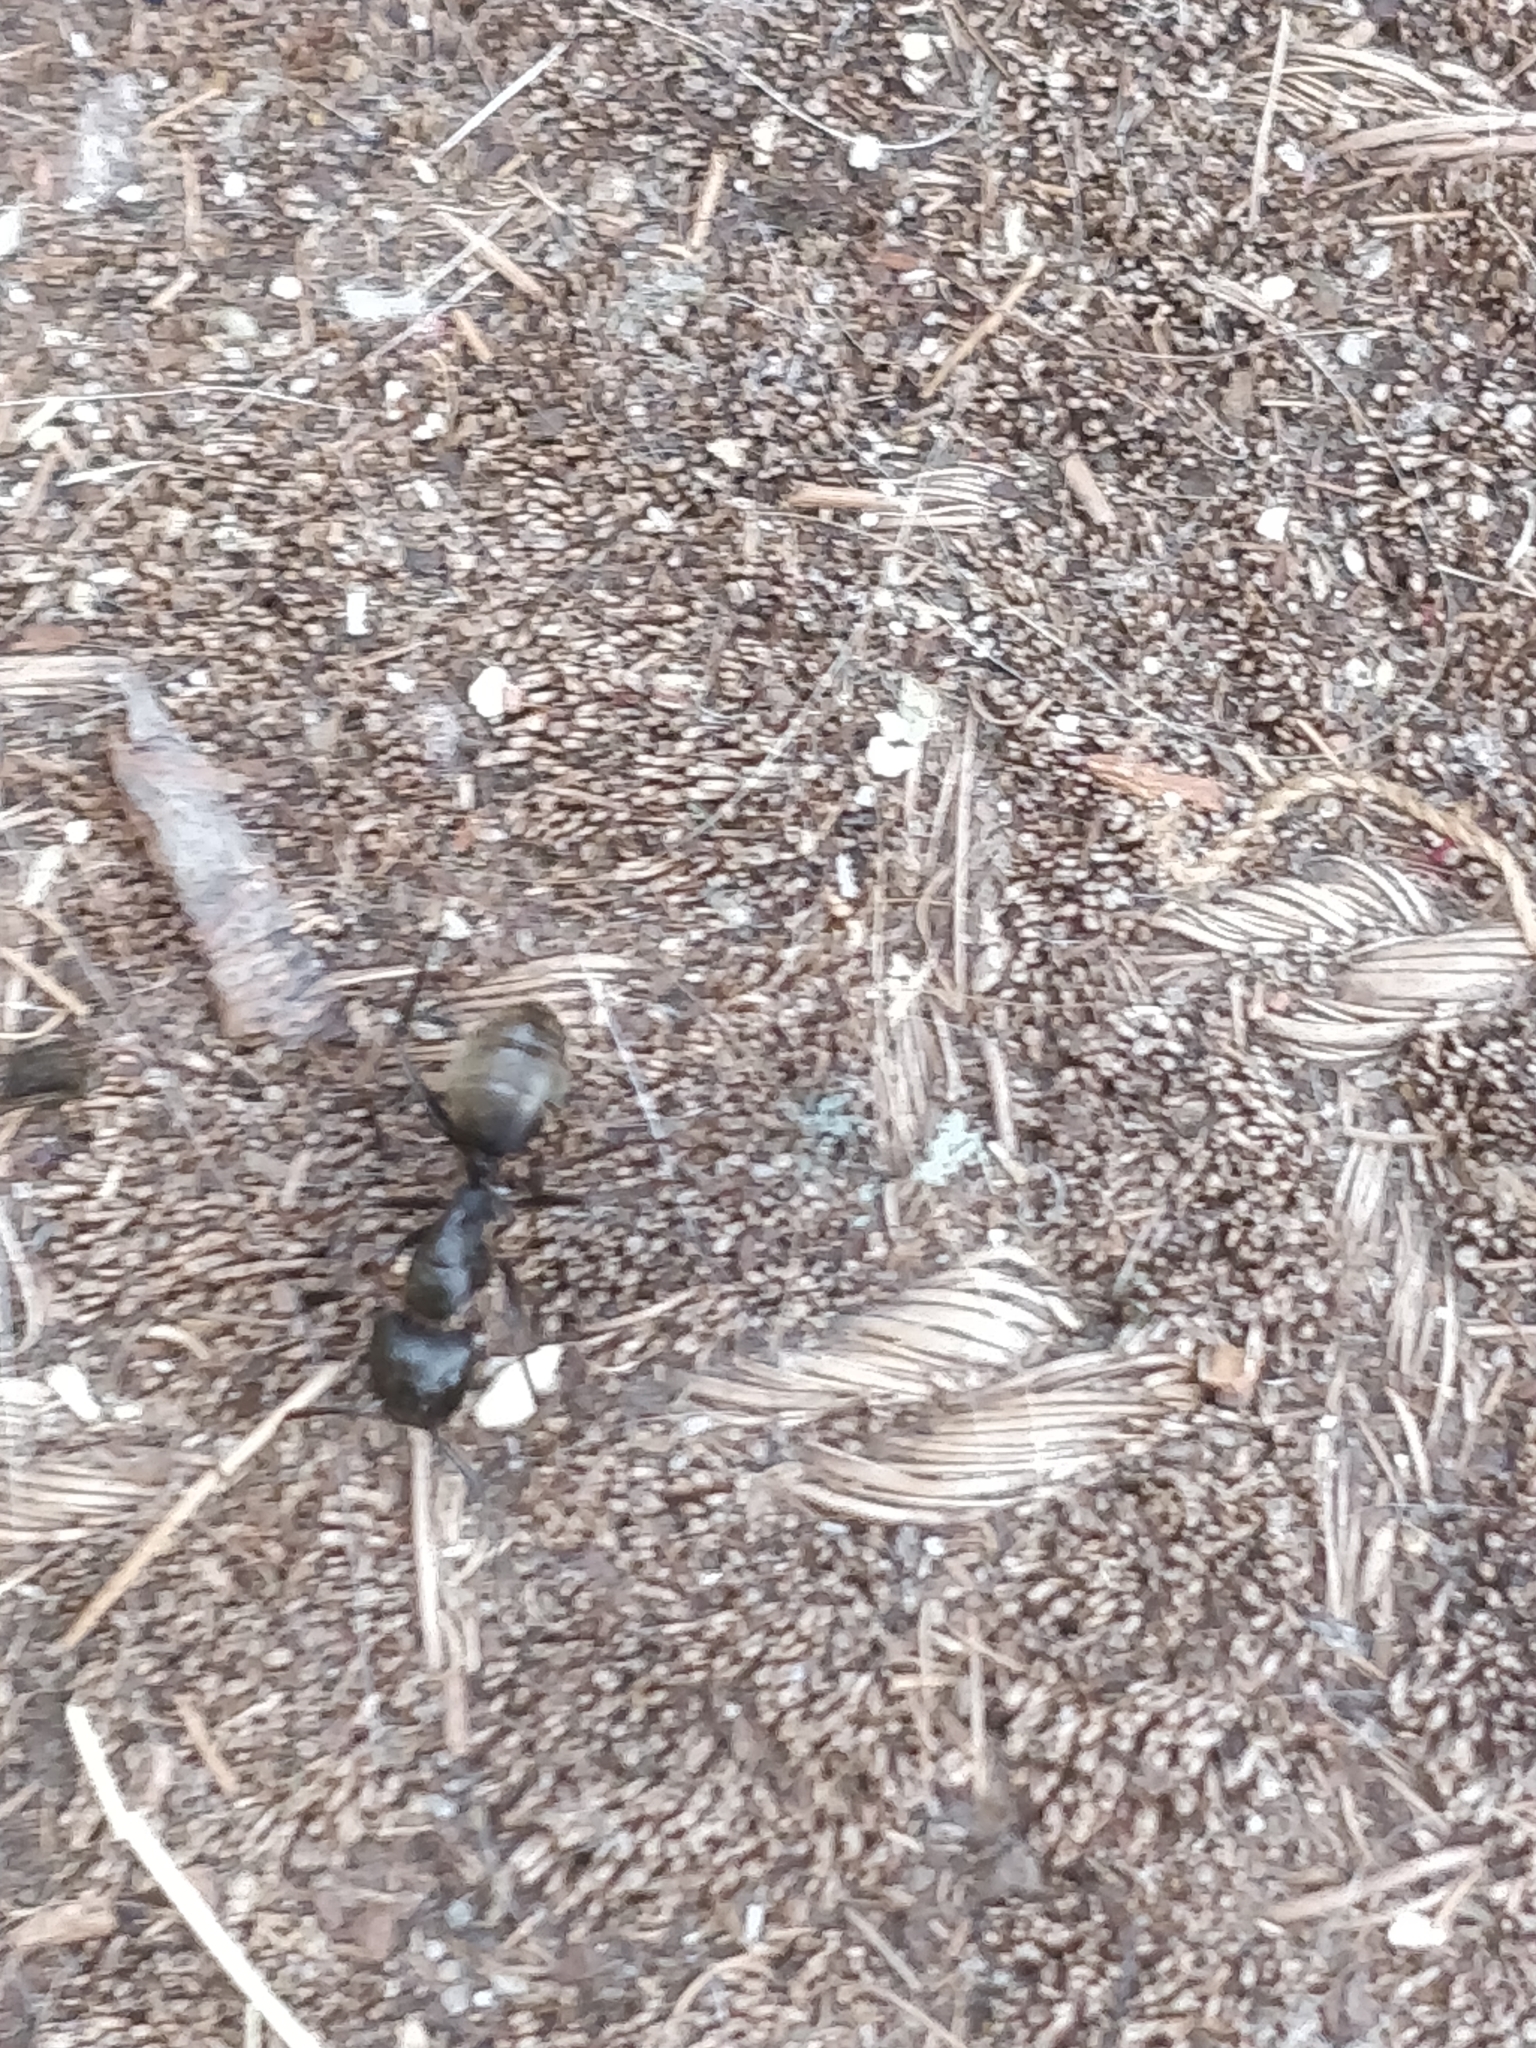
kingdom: Animalia
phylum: Arthropoda
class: Insecta
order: Hymenoptera
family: Formicidae
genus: Camponotus
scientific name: Camponotus pennsylvanicus
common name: Black carpenter ant
